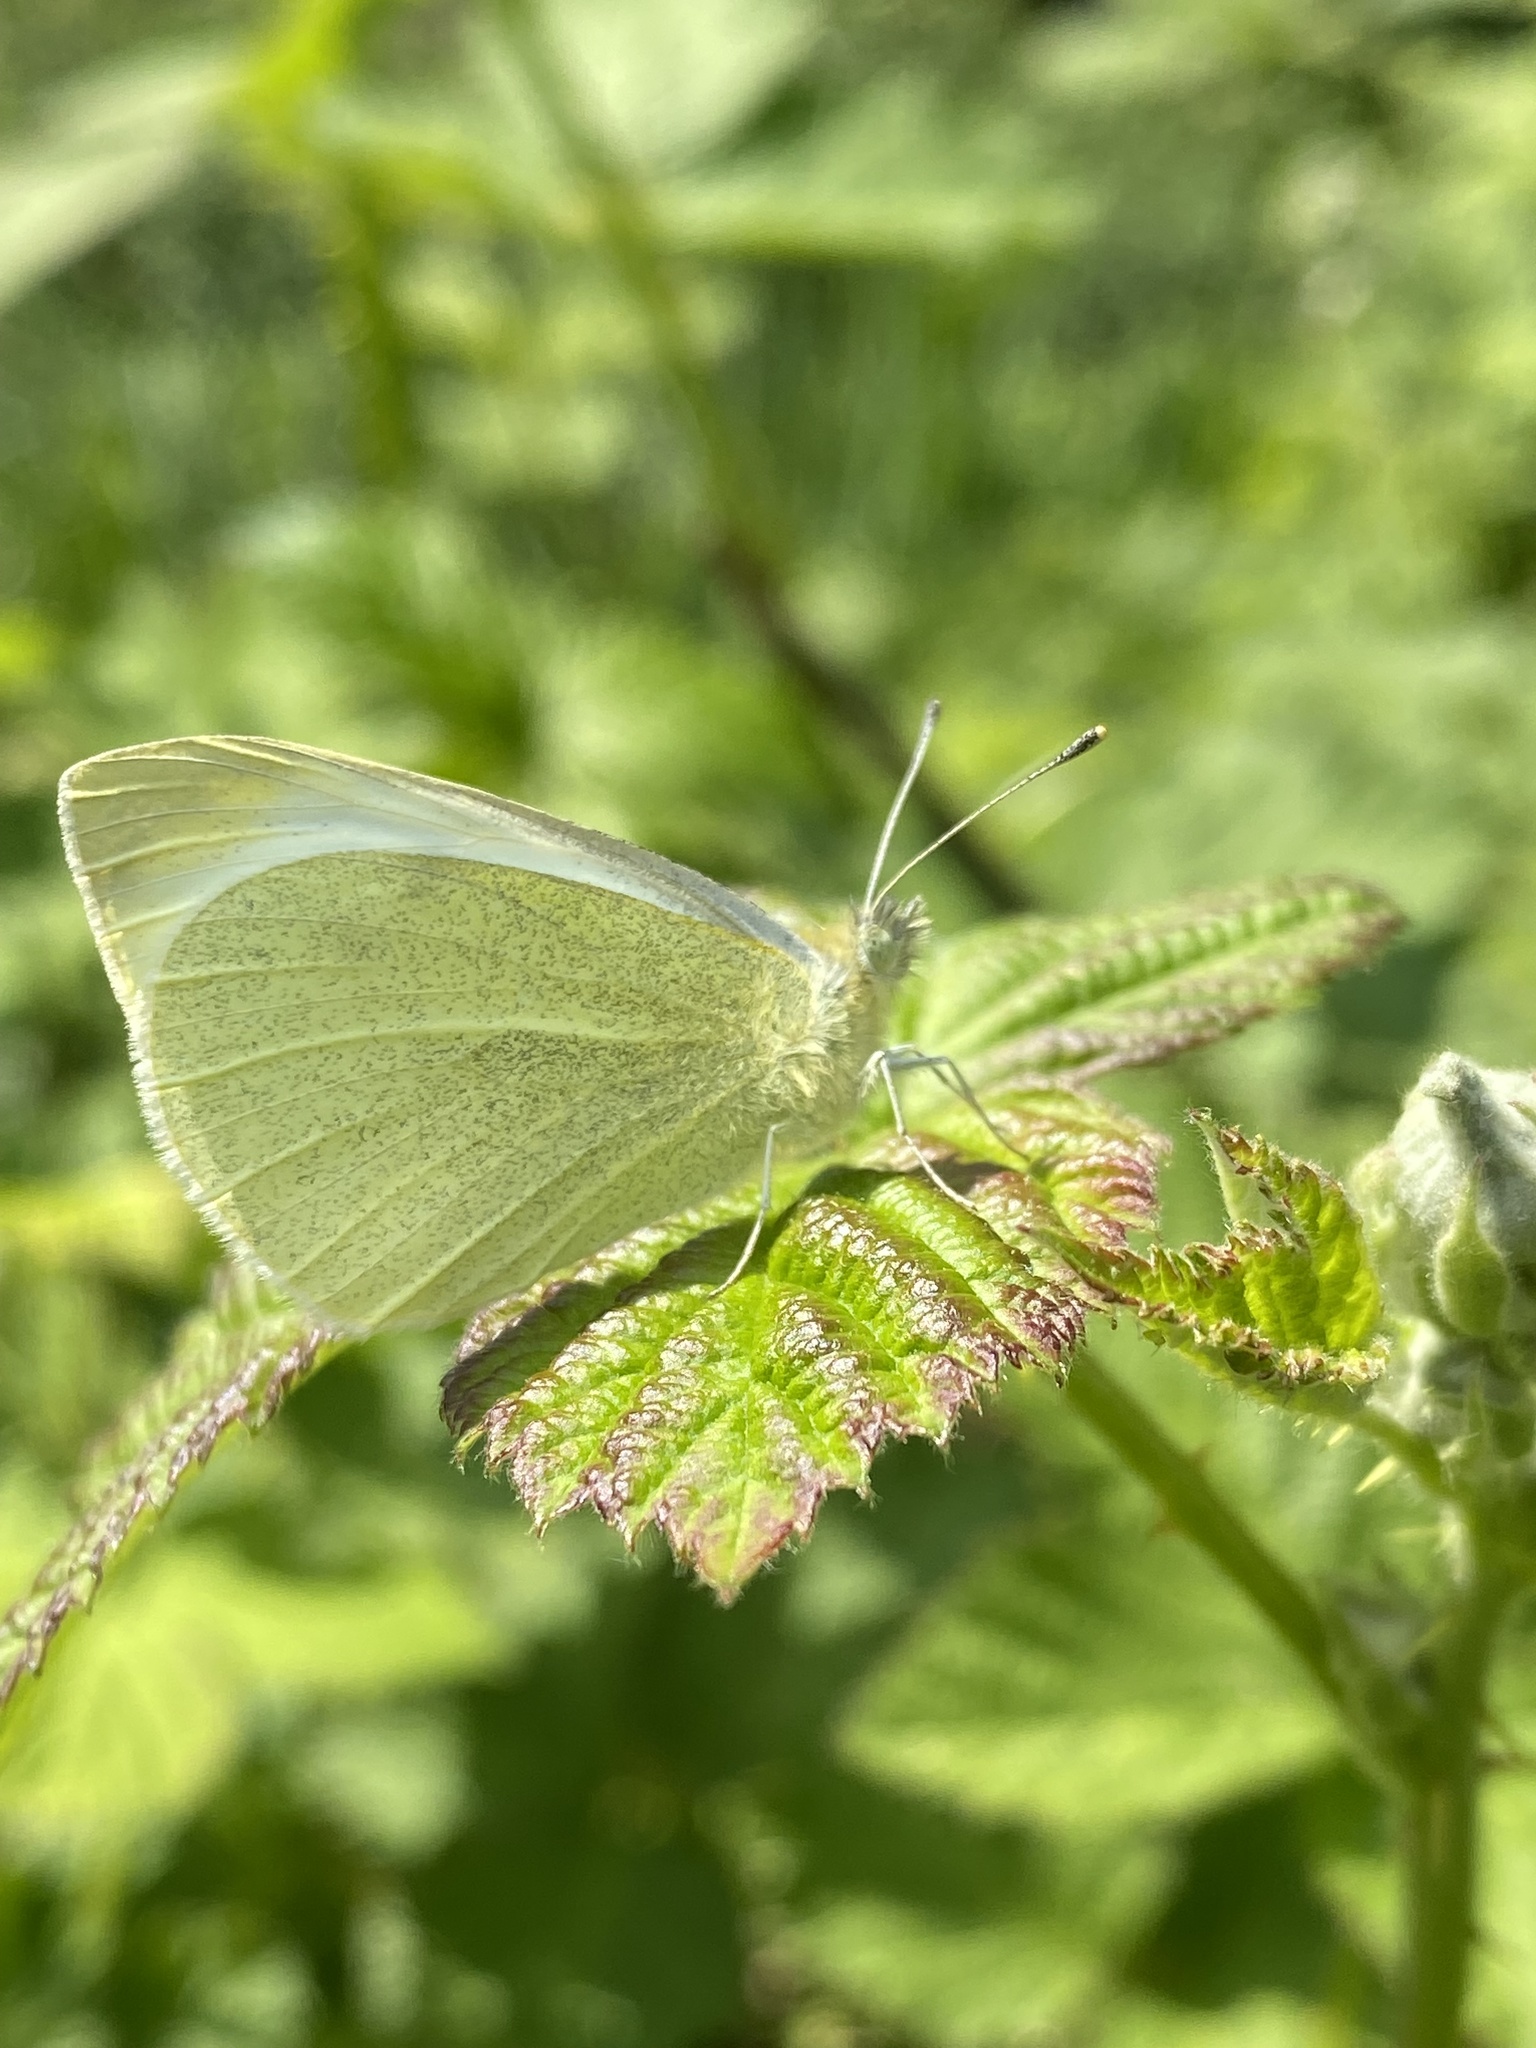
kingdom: Animalia
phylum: Arthropoda
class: Insecta
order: Lepidoptera
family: Pieridae
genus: Pieris
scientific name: Pieris rapae
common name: Small white
